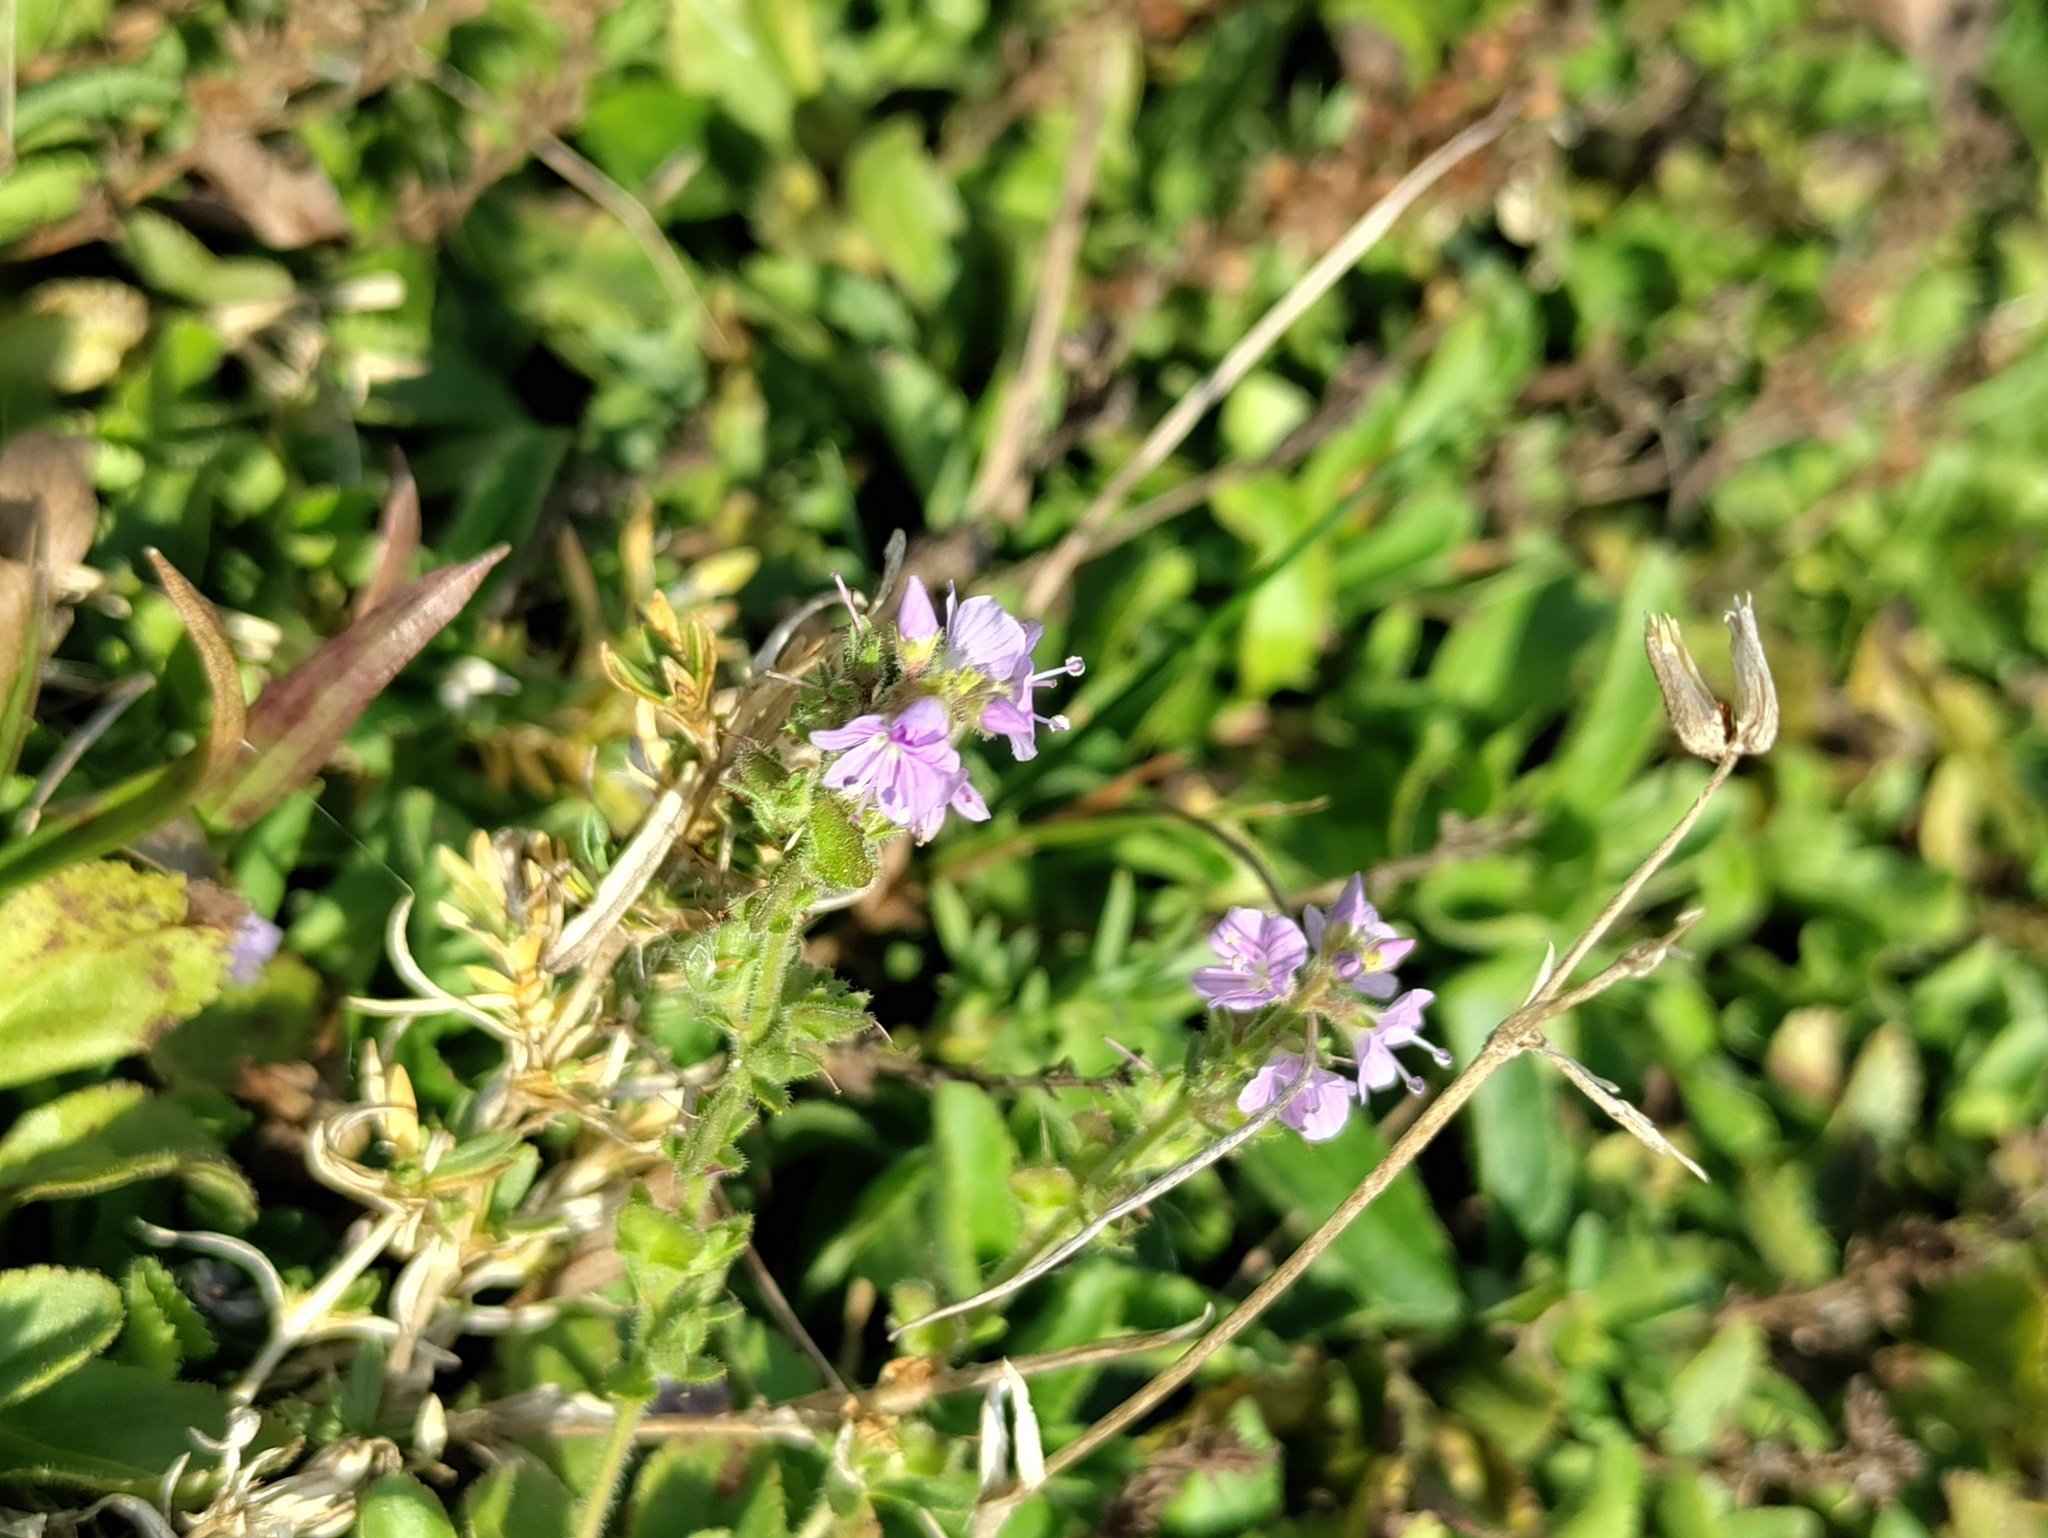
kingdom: Plantae
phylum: Tracheophyta
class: Magnoliopsida
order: Lamiales
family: Plantaginaceae
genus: Veronica
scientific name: Veronica officinalis
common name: Common speedwell
